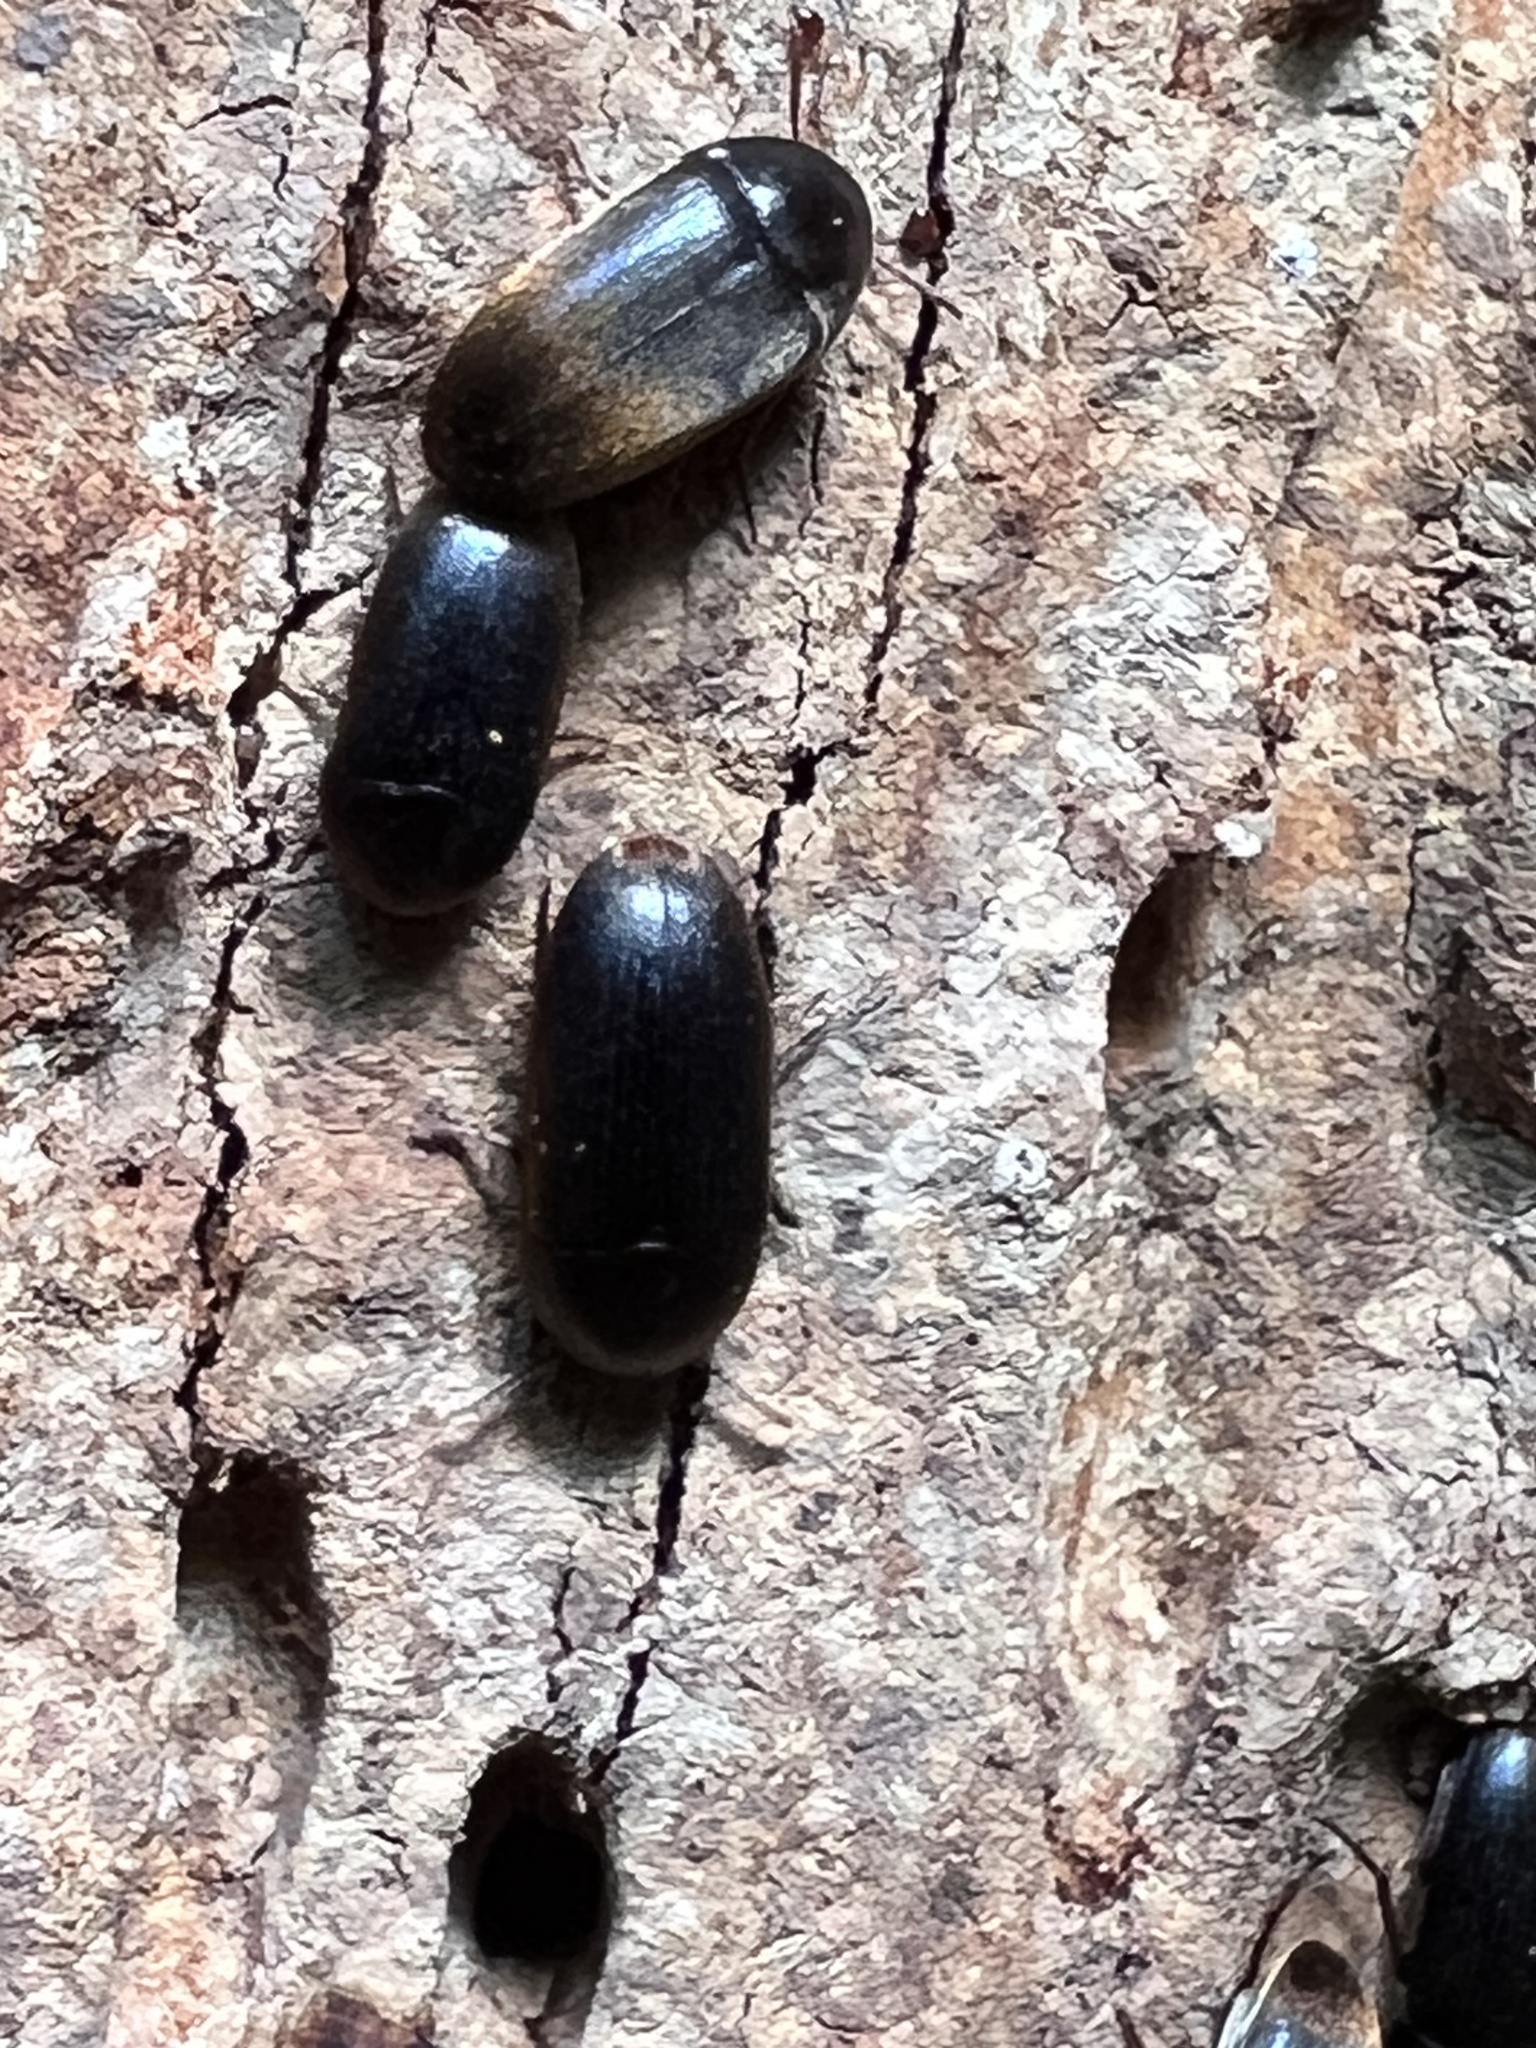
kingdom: Animalia
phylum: Arthropoda
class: Insecta
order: Coleoptera
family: Tetratomidae
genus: Eustrophus
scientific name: Eustrophus tomentosus
